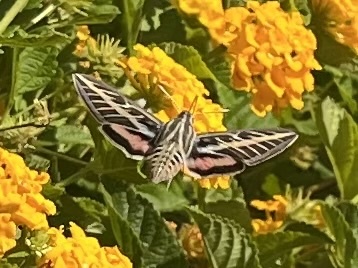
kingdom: Animalia
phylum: Arthropoda
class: Insecta
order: Lepidoptera
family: Sphingidae
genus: Hyles
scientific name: Hyles lineata
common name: White-lined sphinx
